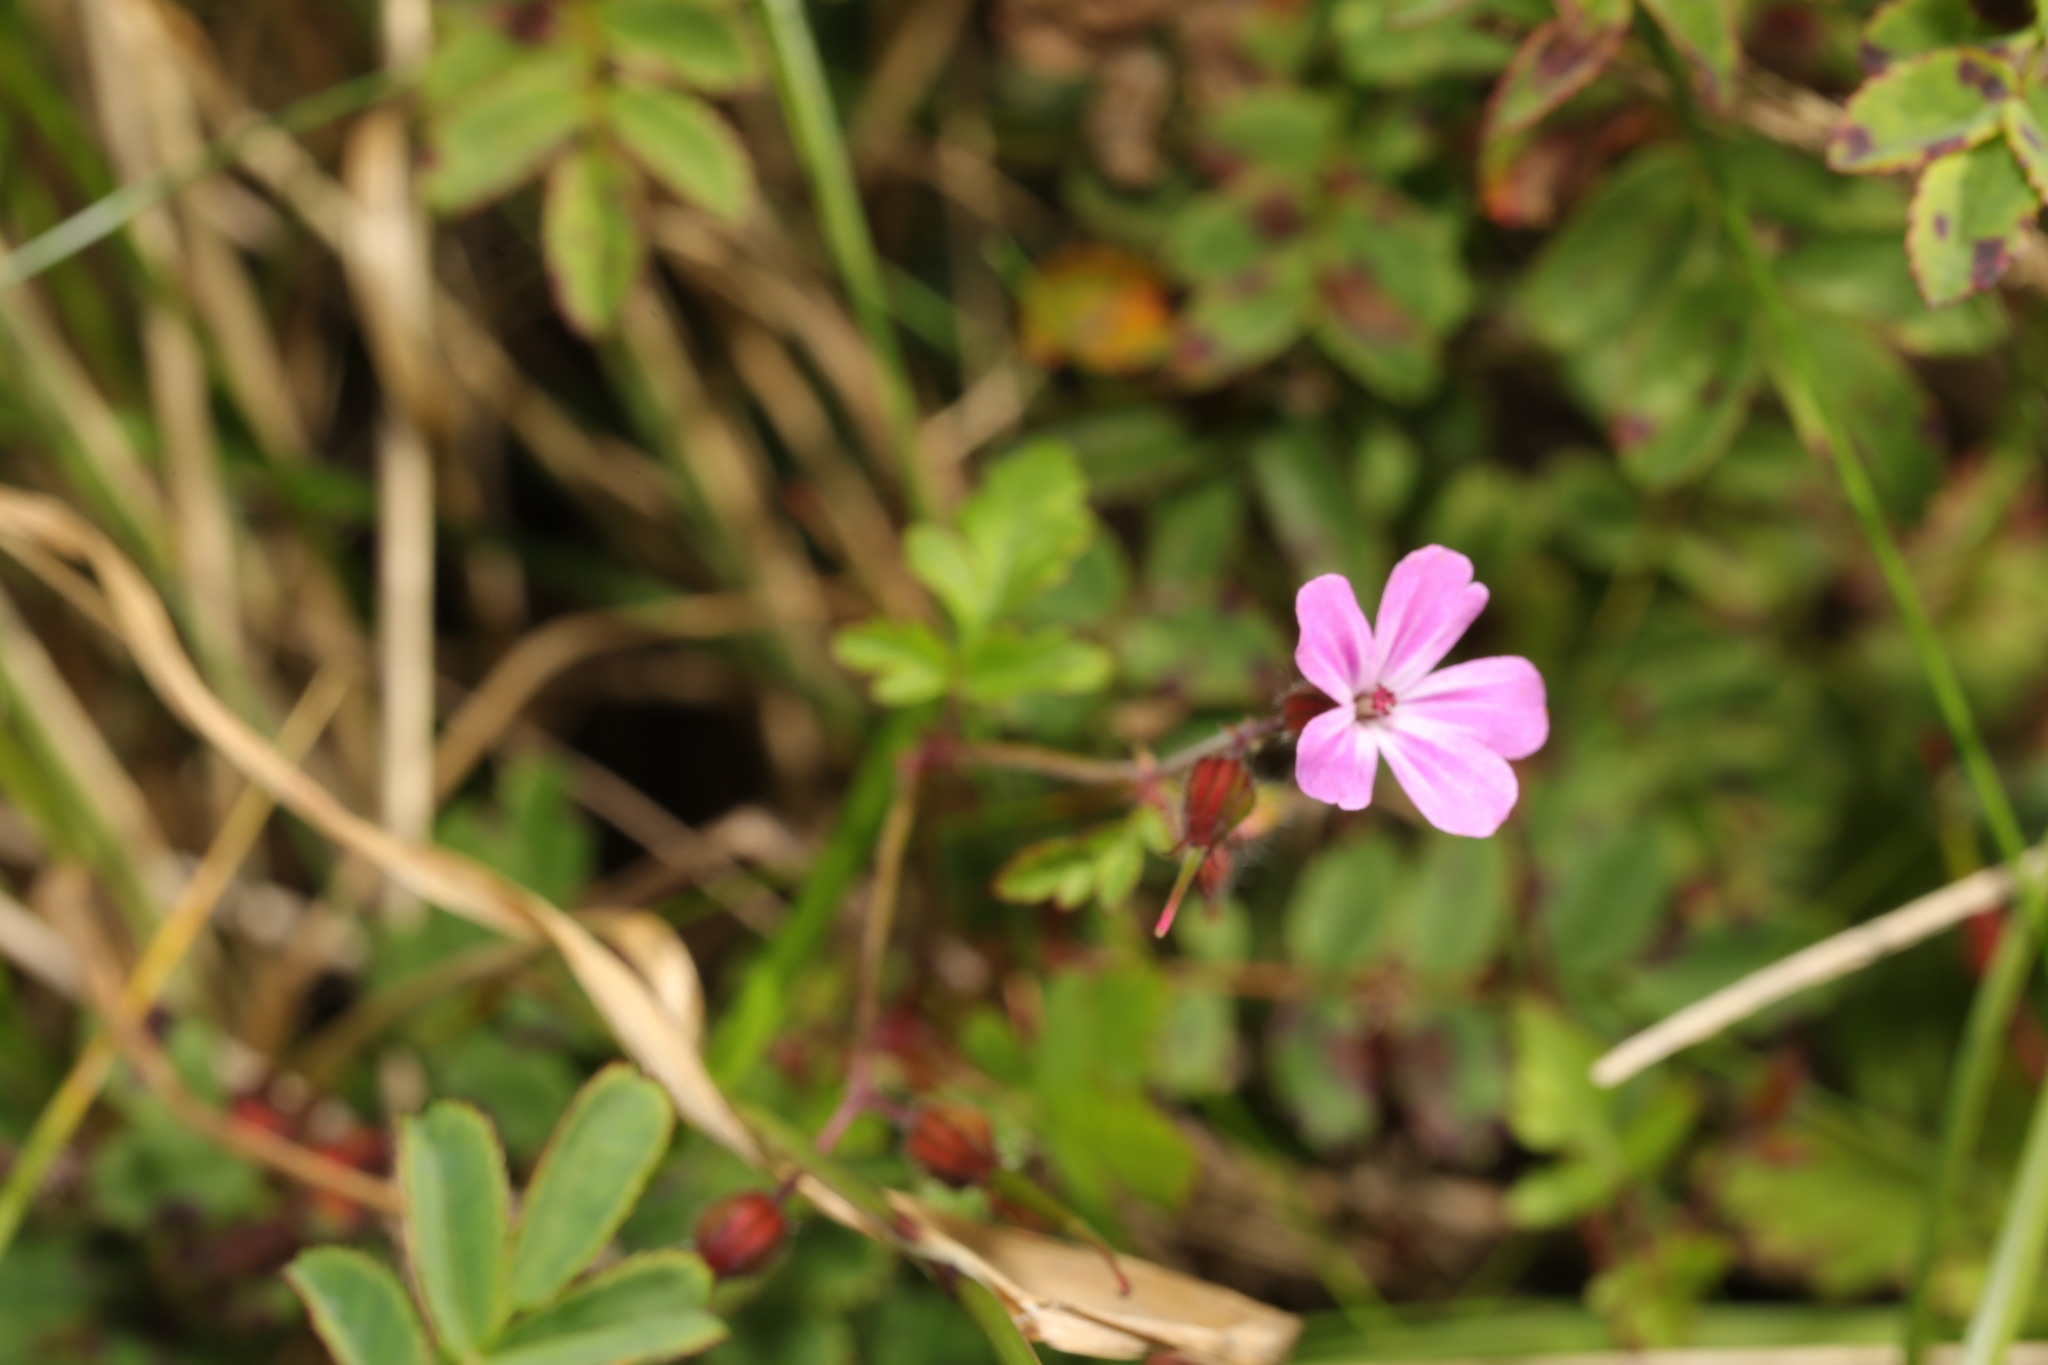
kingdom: Plantae
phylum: Tracheophyta
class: Magnoliopsida
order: Geraniales
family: Geraniaceae
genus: Geranium
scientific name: Geranium robertianum
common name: Herb-robert
